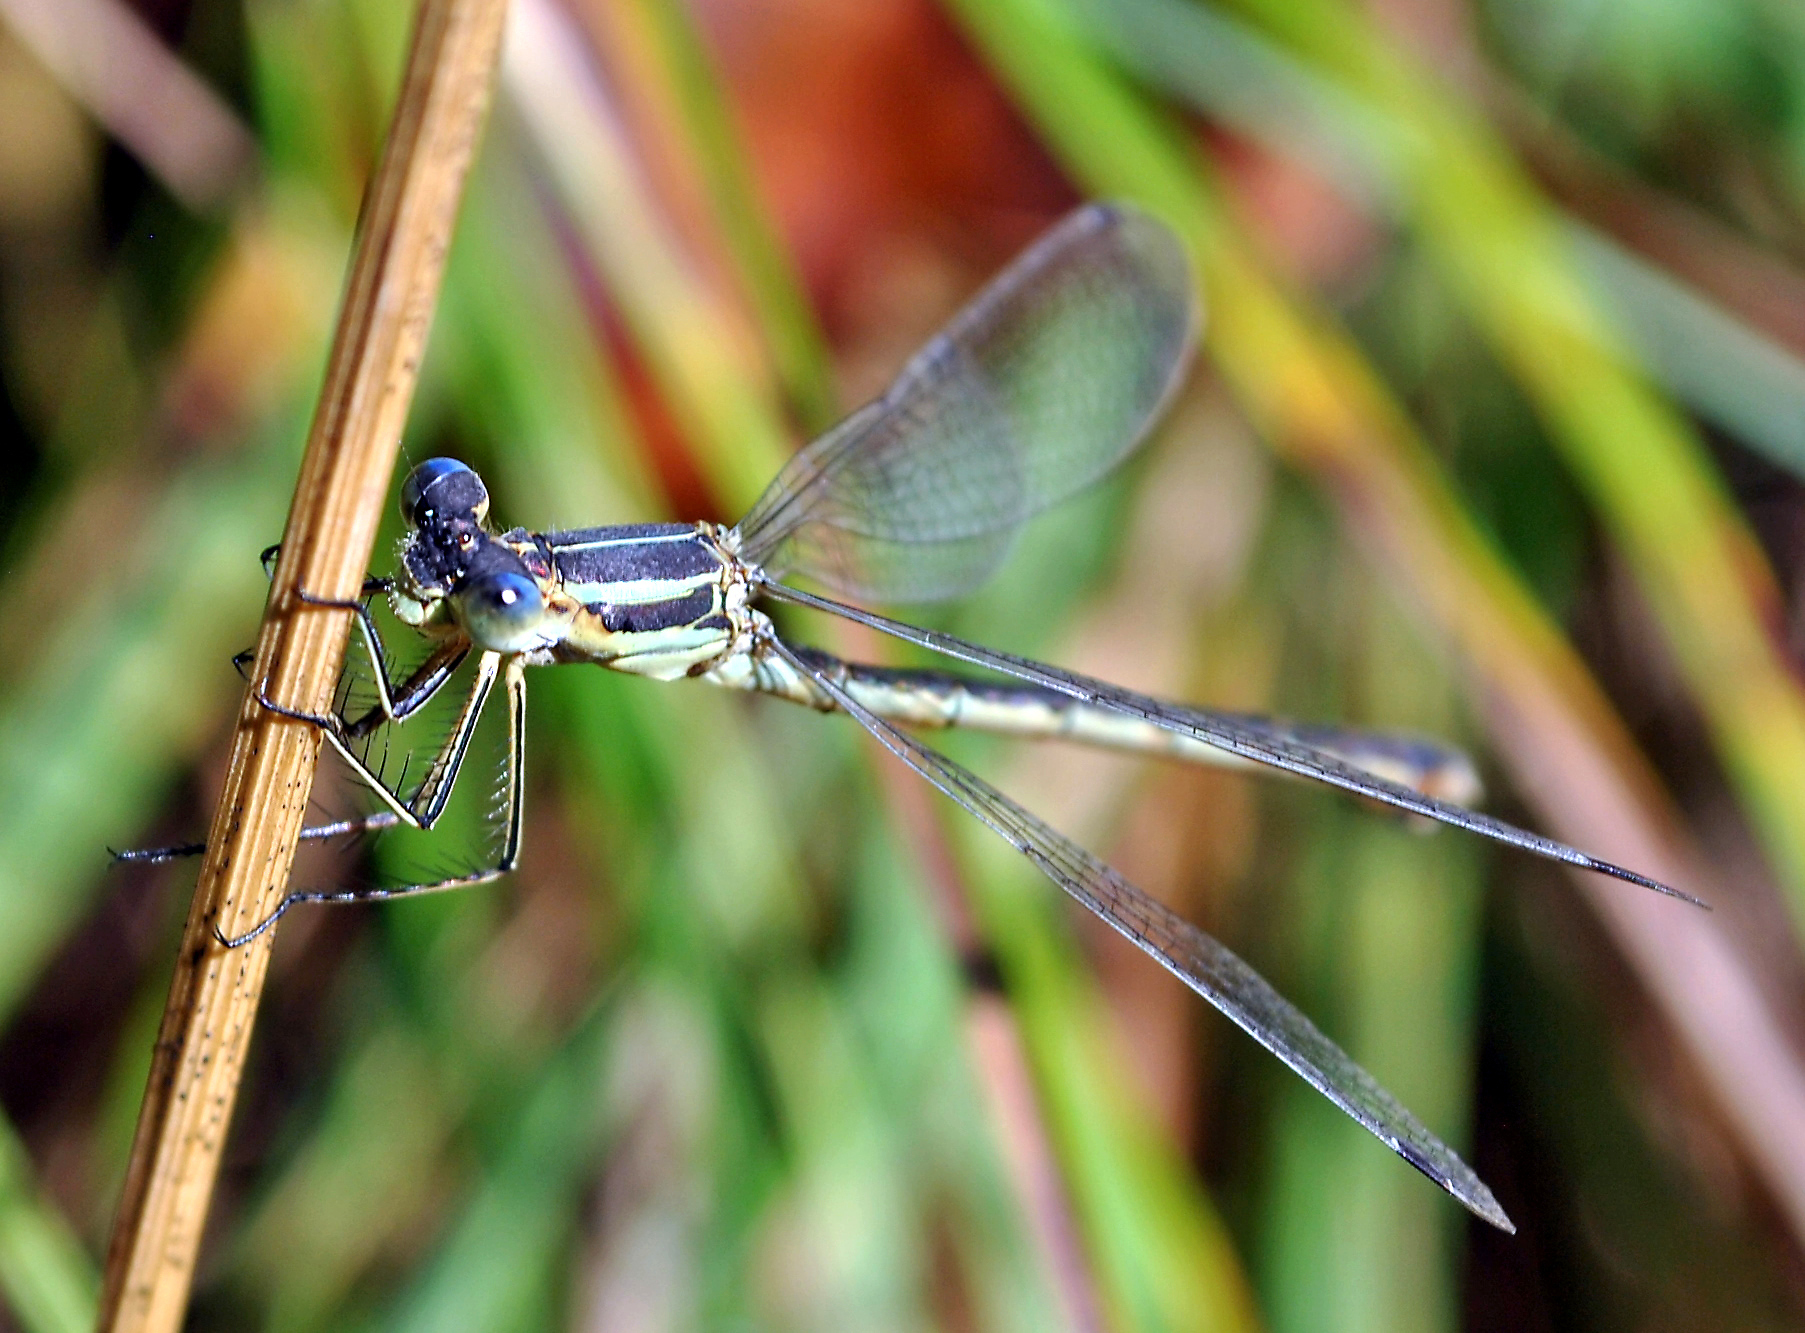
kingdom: Animalia
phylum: Arthropoda
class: Insecta
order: Odonata
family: Lestidae
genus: Lestes
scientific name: Lestes unguiculatus
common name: Lyre-tipped spreadwing
